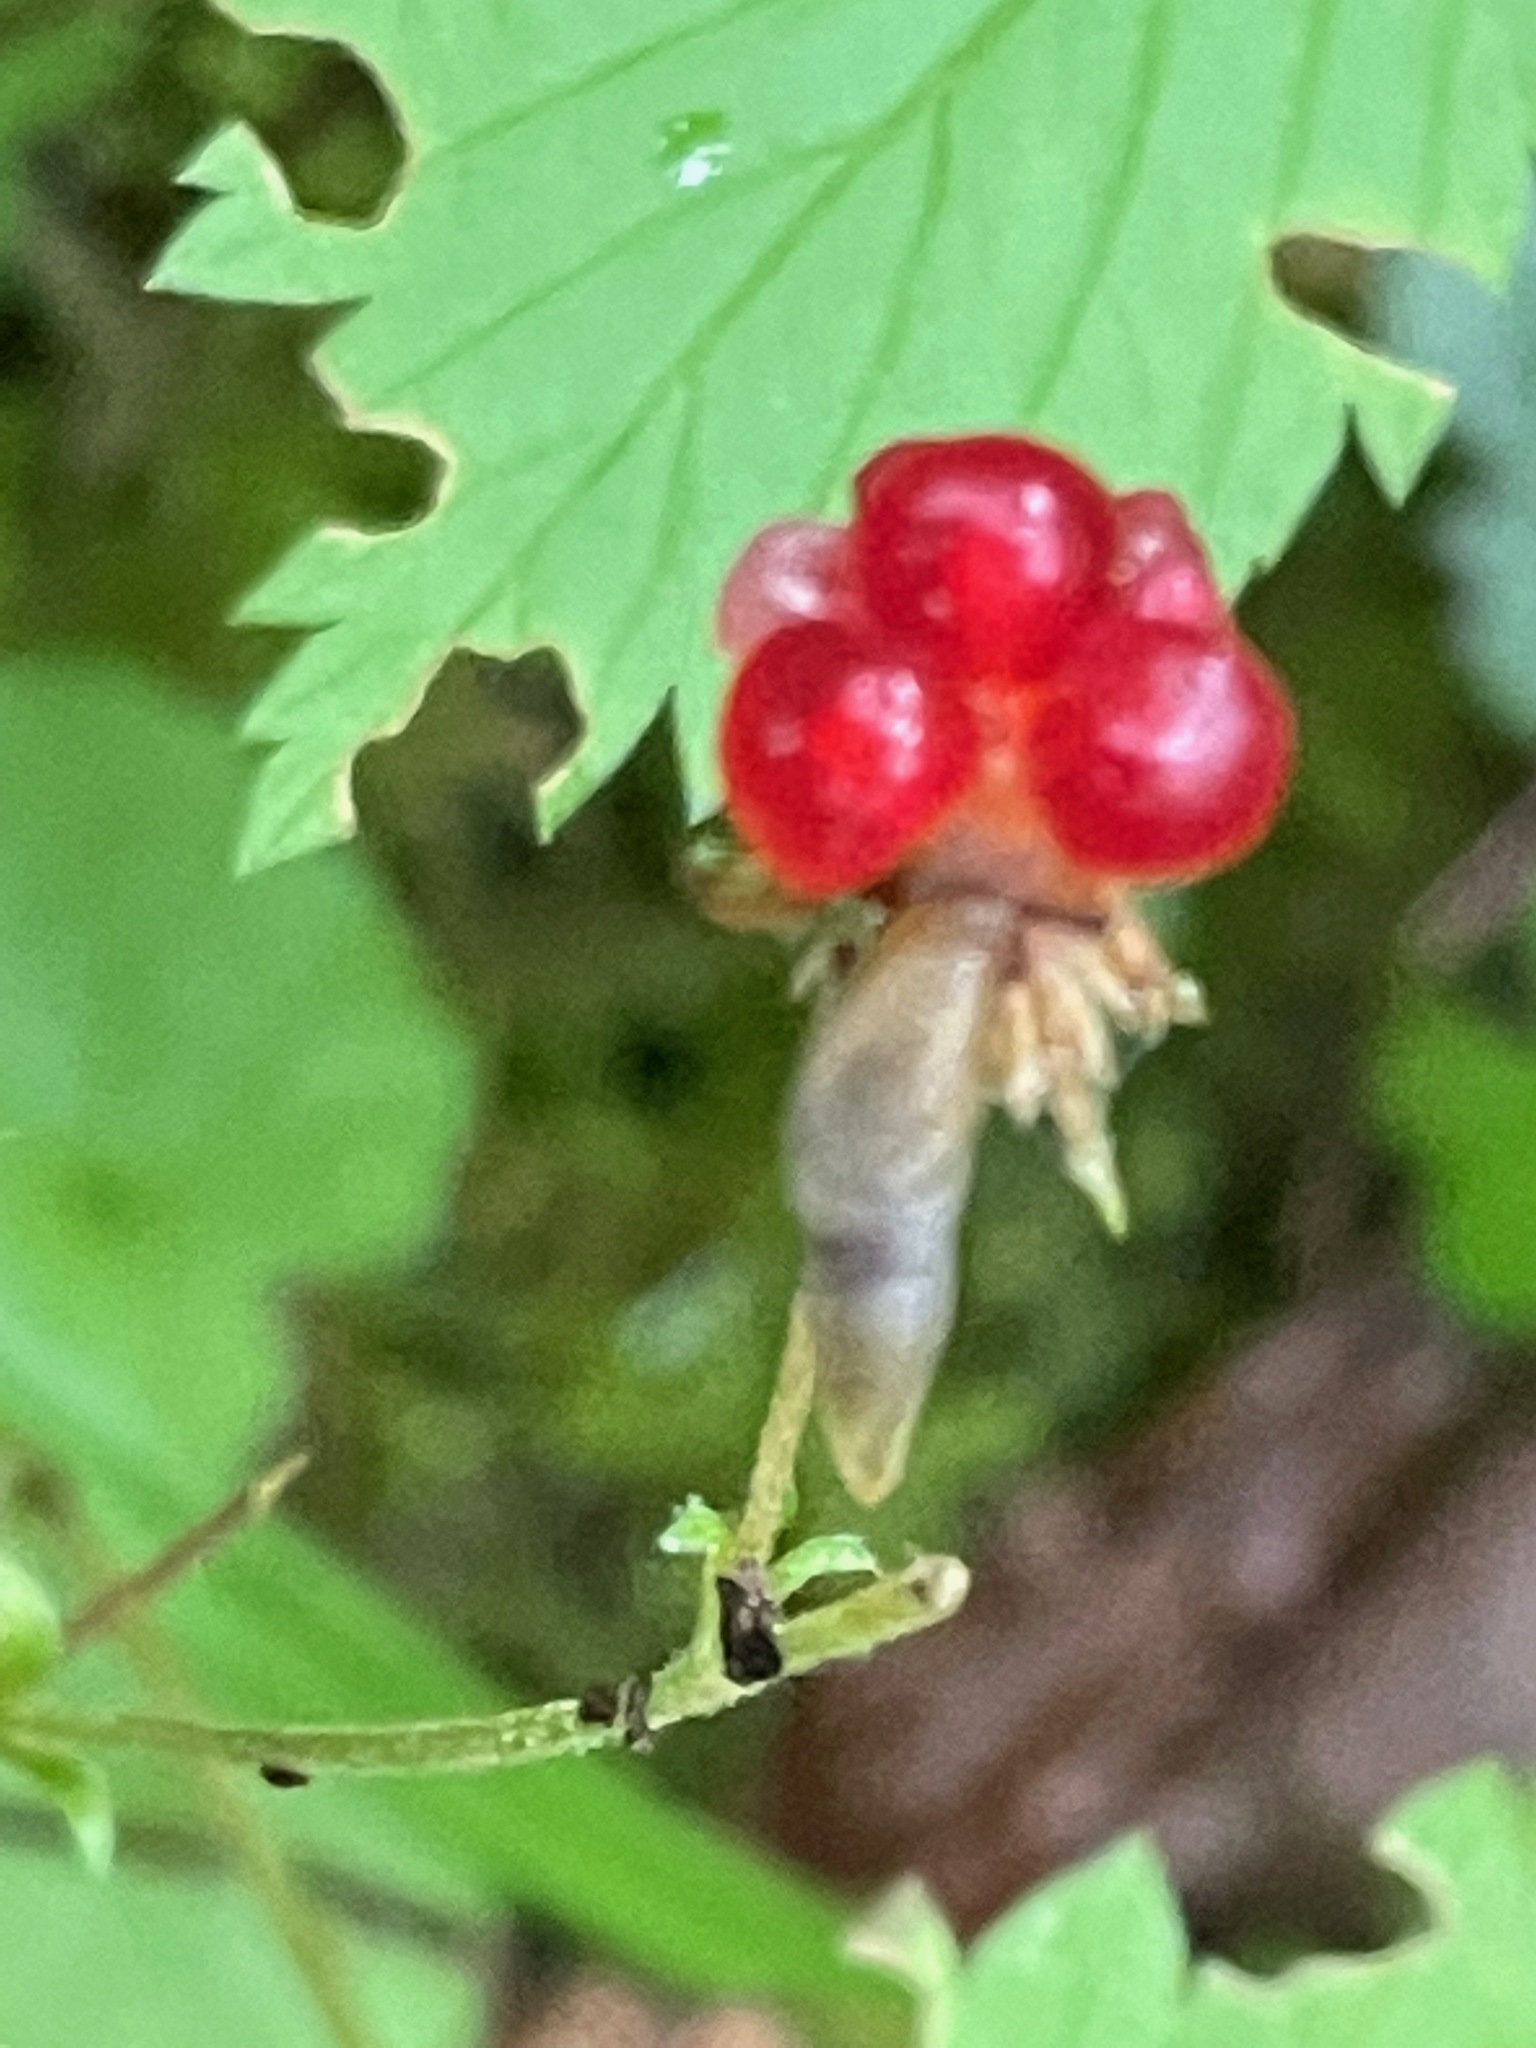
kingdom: Plantae
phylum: Tracheophyta
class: Magnoliopsida
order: Rosales
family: Rosaceae
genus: Rubus
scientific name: Rubus pubescens
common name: Dwarf raspberry
